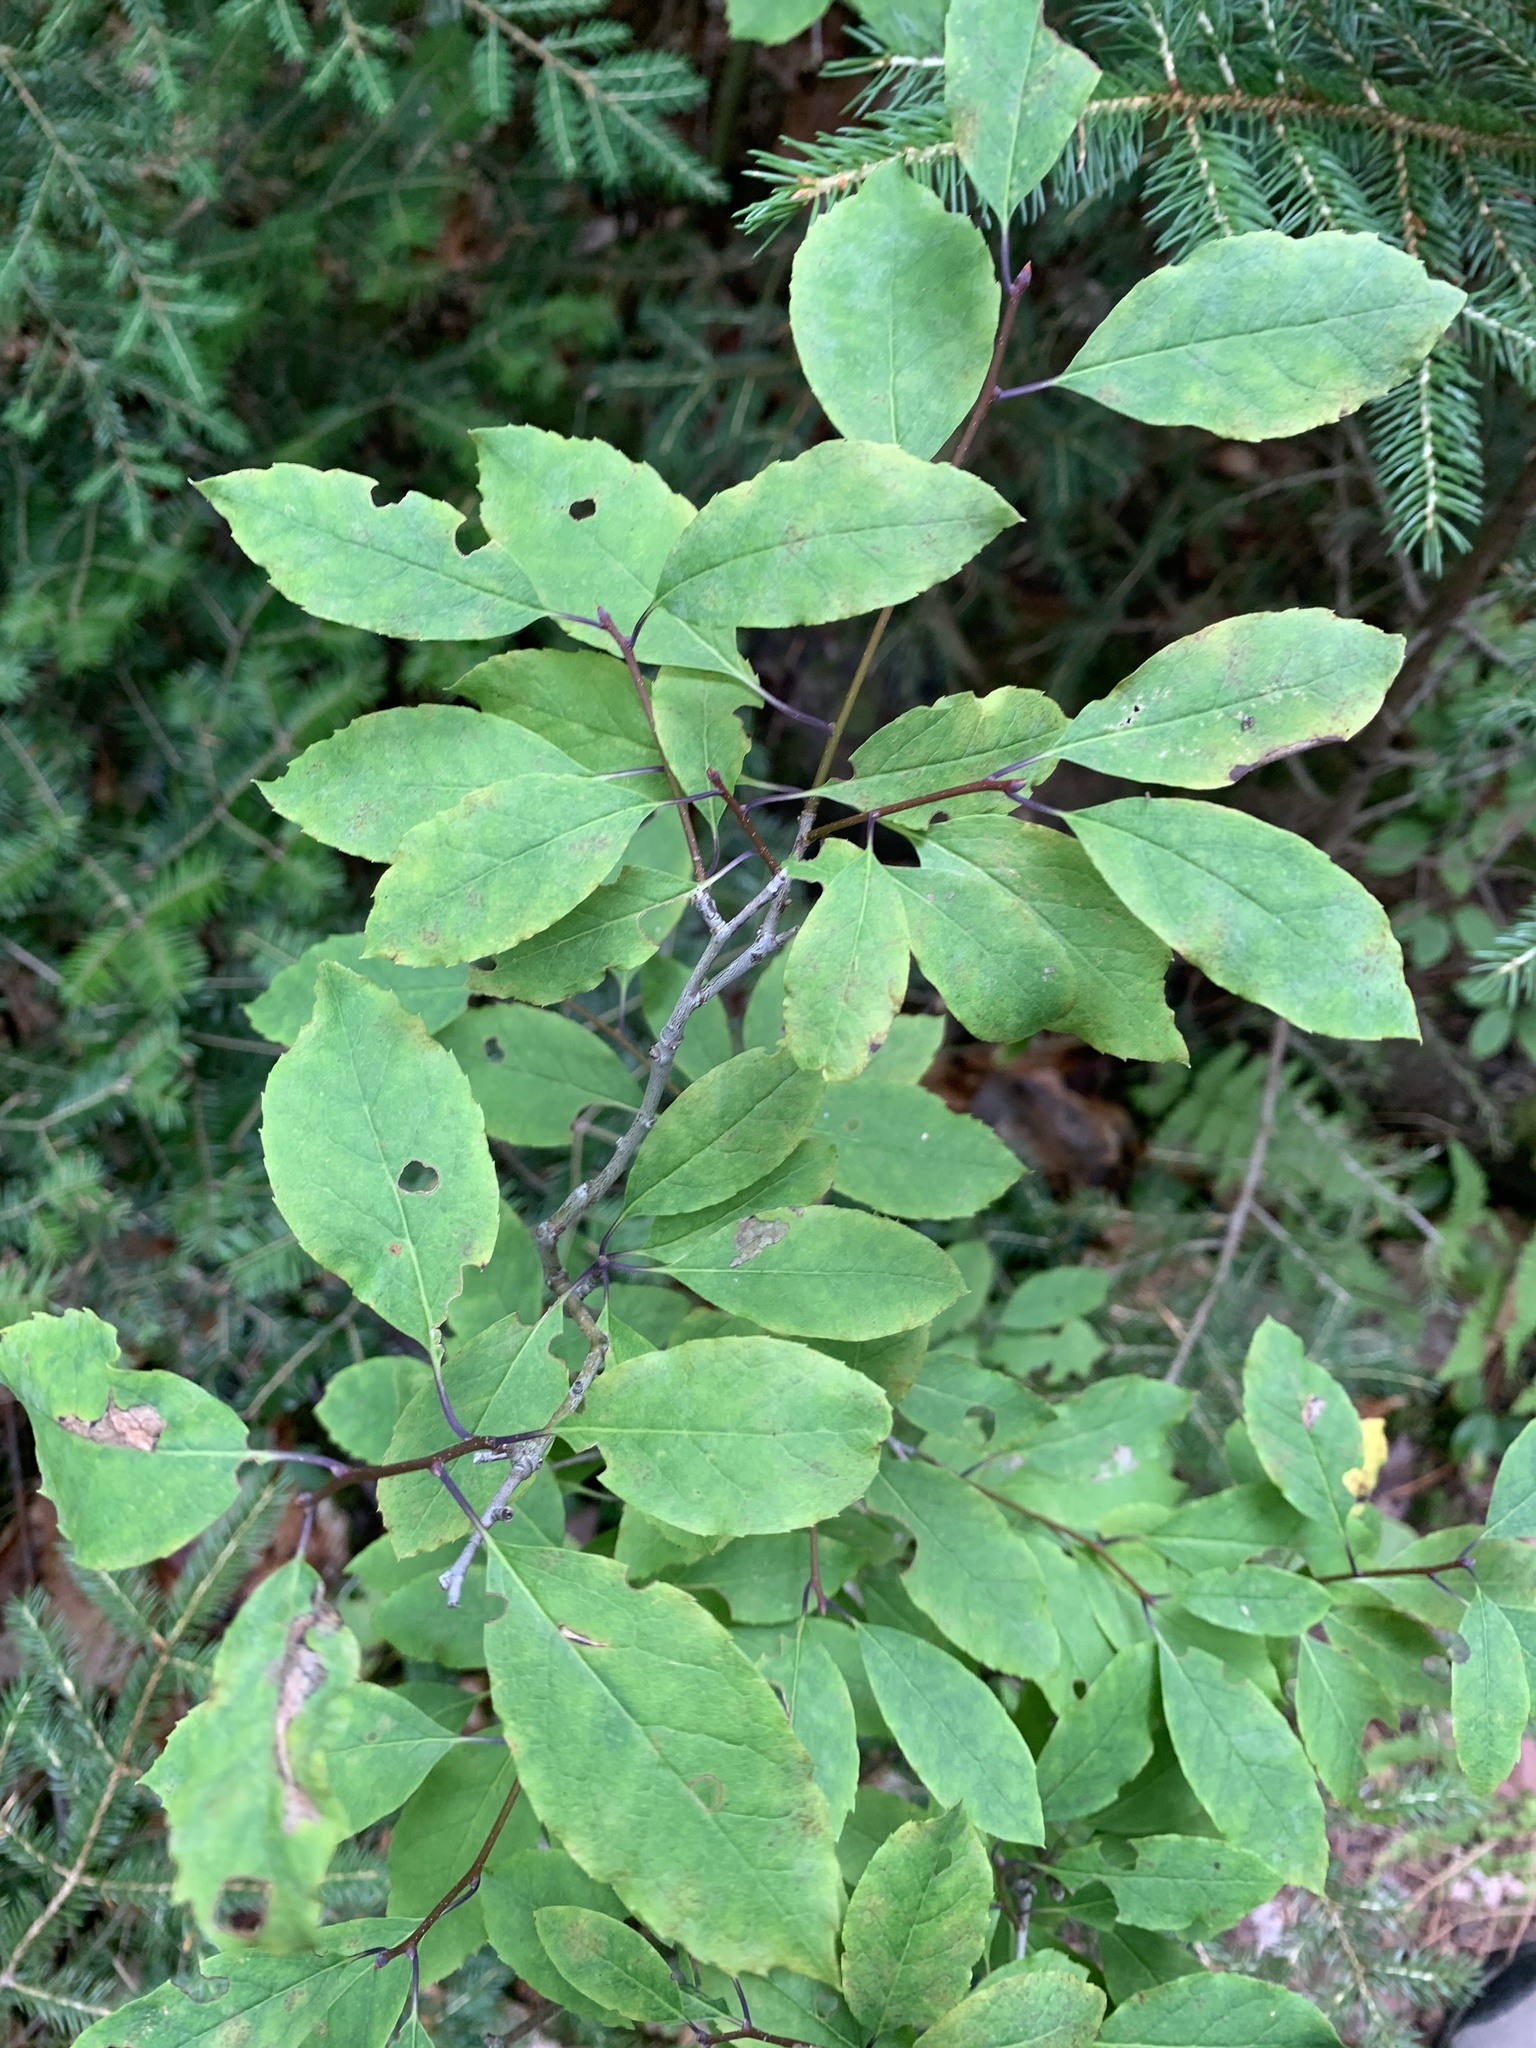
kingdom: Plantae
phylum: Tracheophyta
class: Magnoliopsida
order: Aquifoliales
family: Aquifoliaceae
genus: Ilex
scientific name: Ilex mucronata
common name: Catberry
